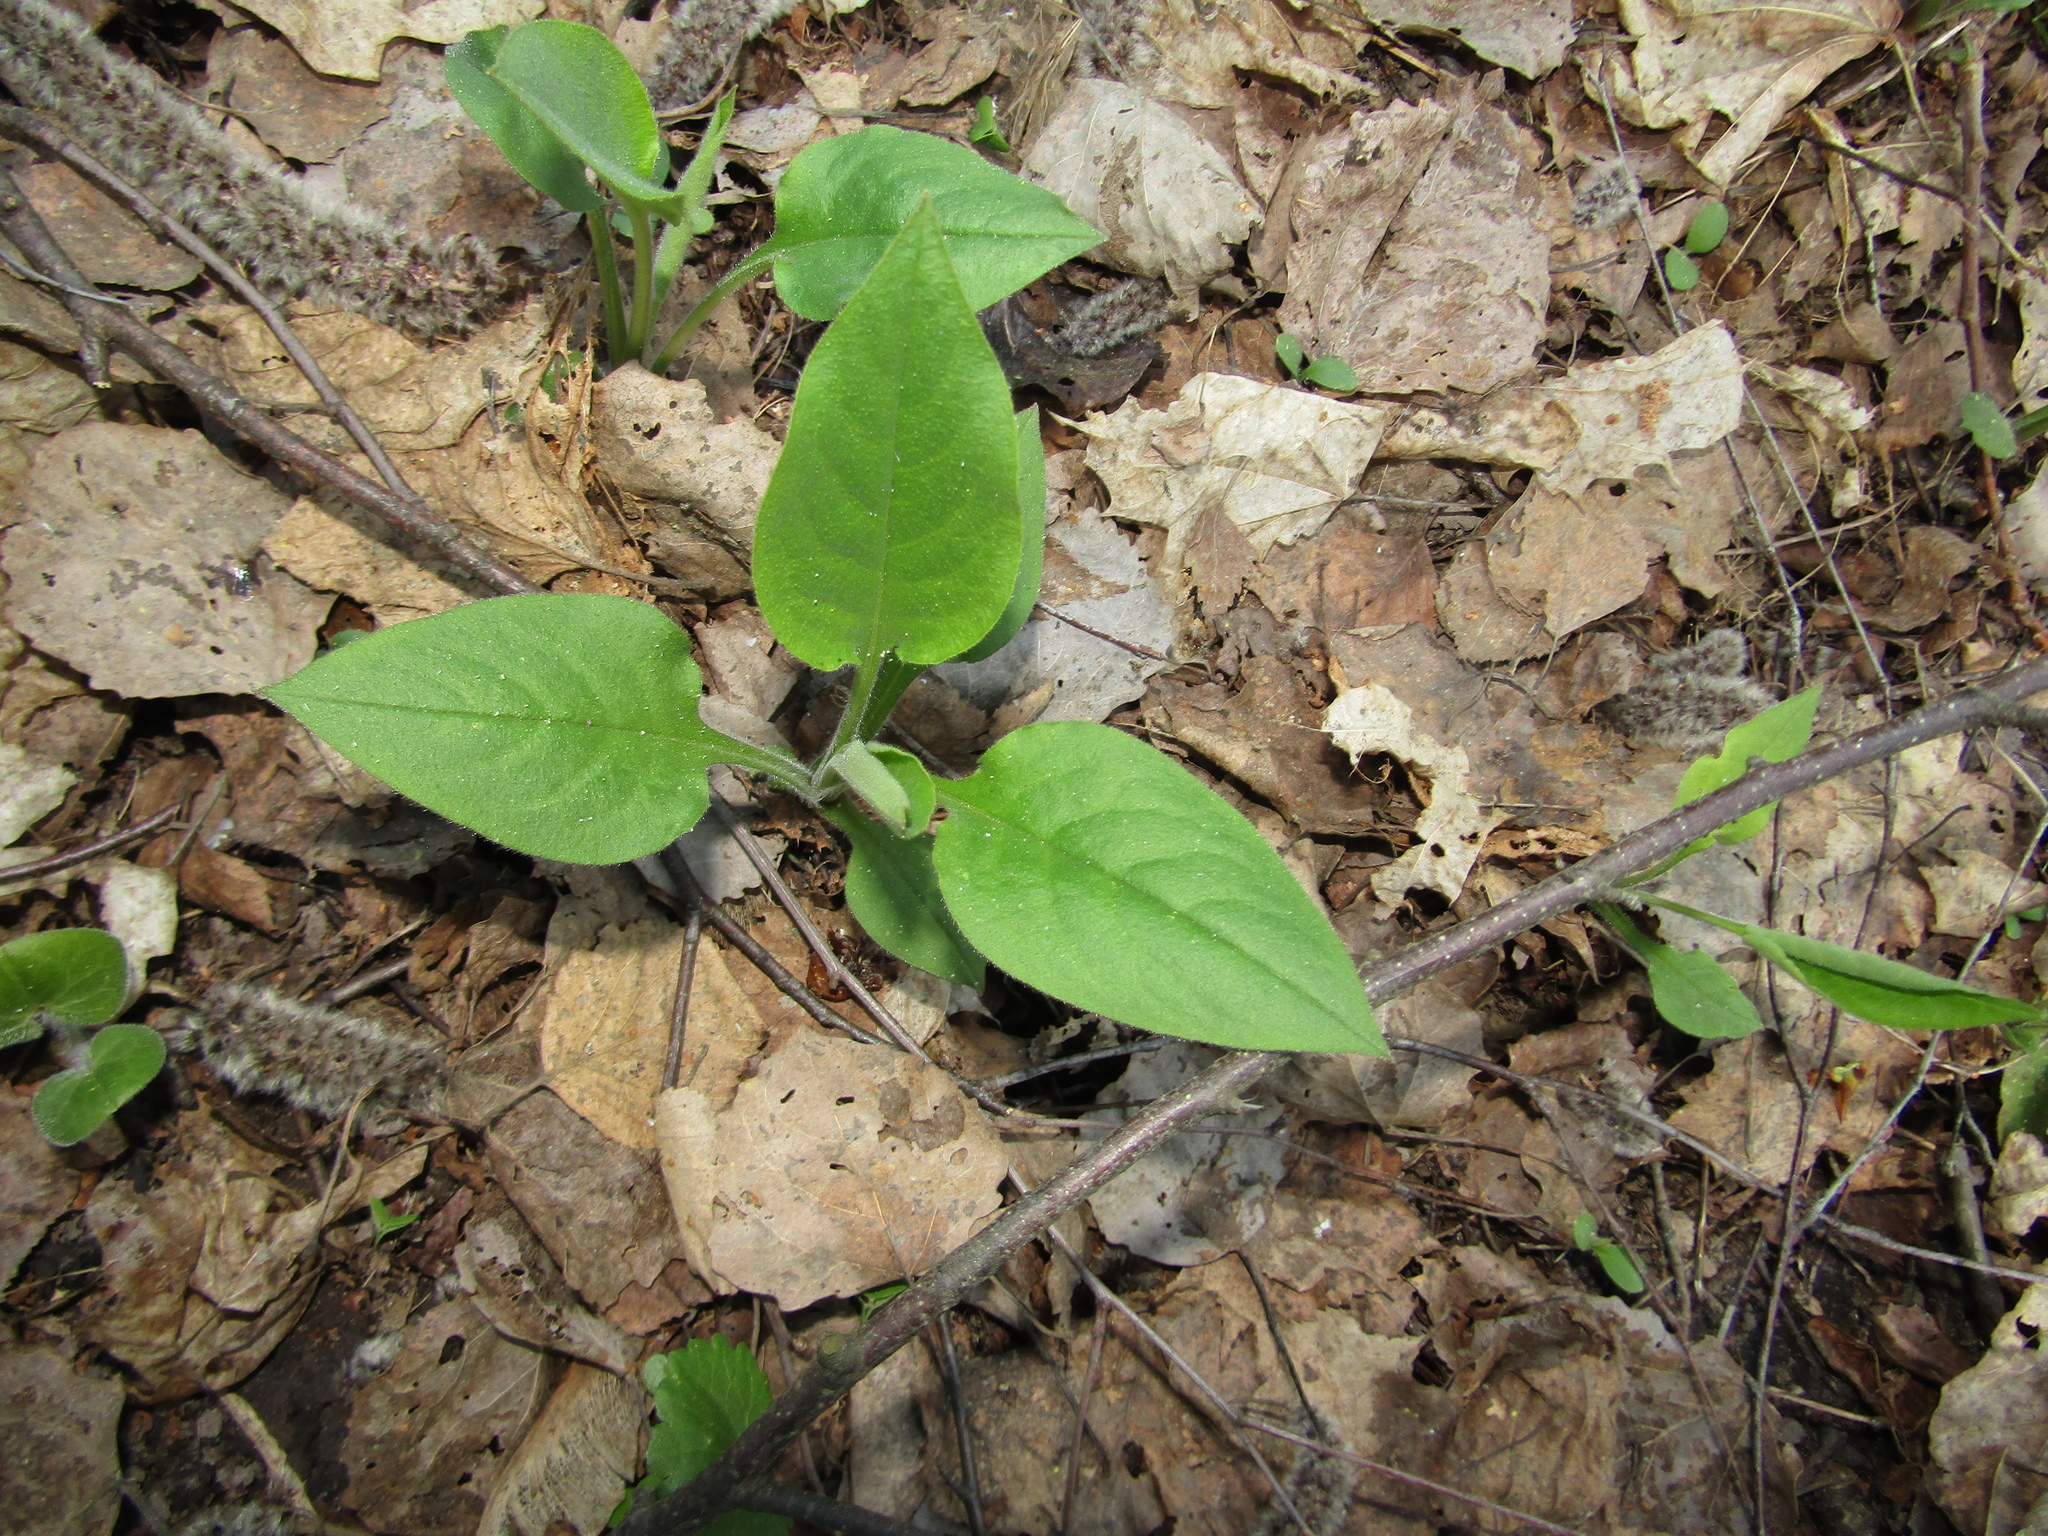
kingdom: Plantae
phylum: Tracheophyta
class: Magnoliopsida
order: Boraginales
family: Boraginaceae
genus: Pulmonaria
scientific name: Pulmonaria obscura
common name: Suffolk lungwort
